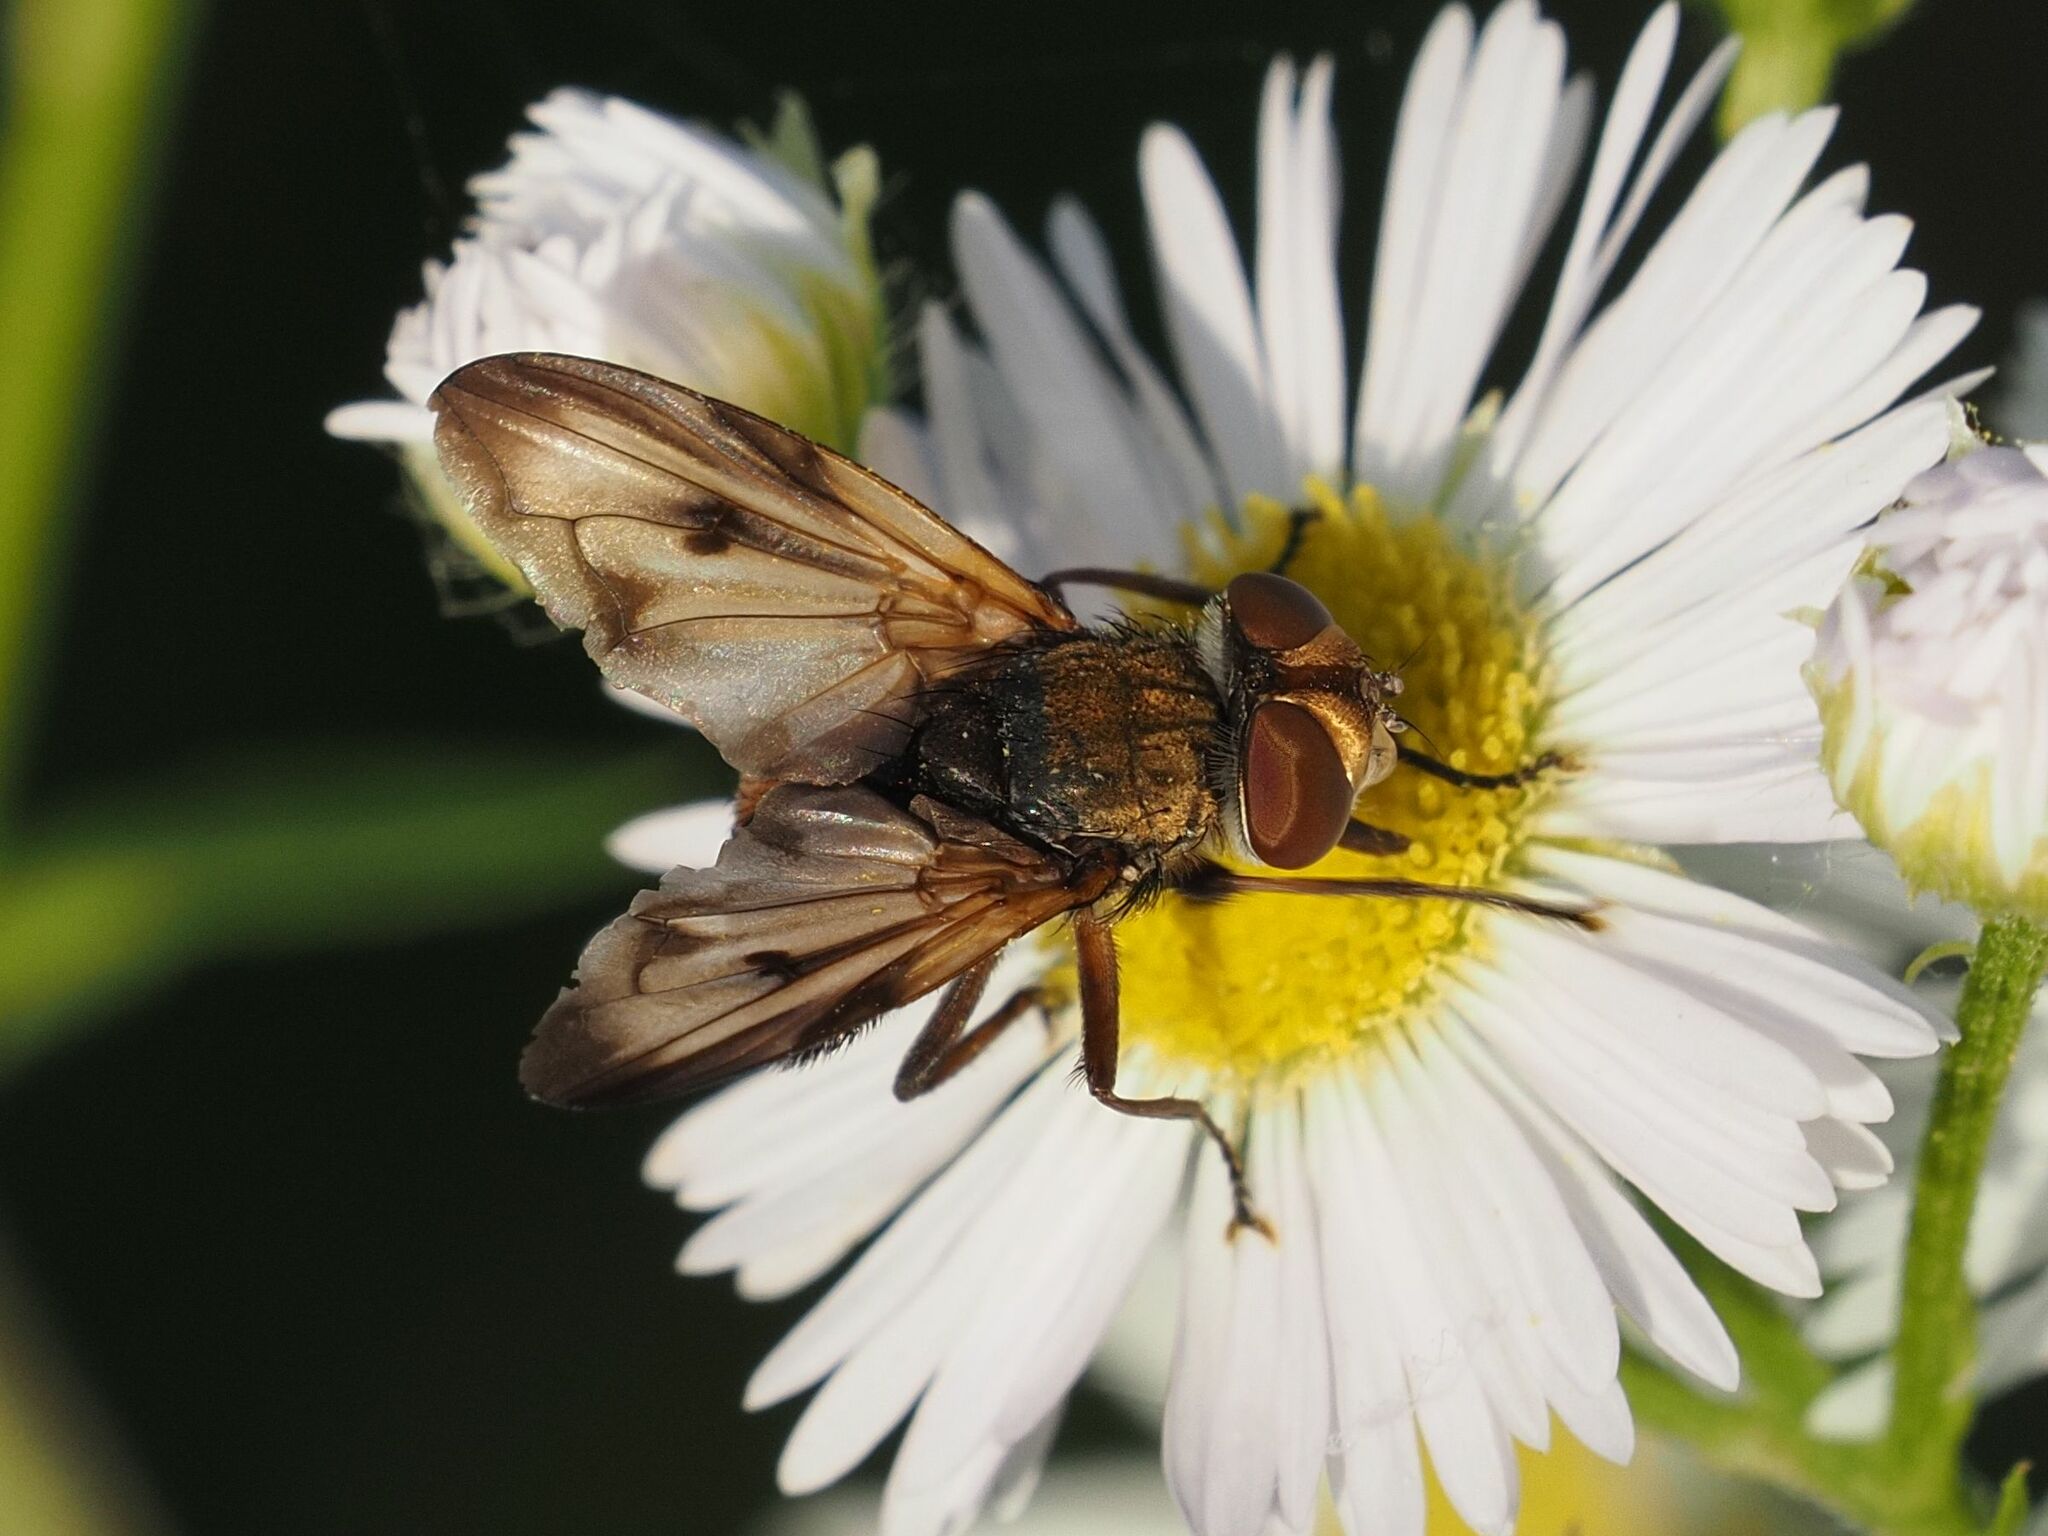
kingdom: Animalia
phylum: Arthropoda
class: Insecta
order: Diptera
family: Tachinidae
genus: Ectophasia
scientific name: Ectophasia crassipennis
